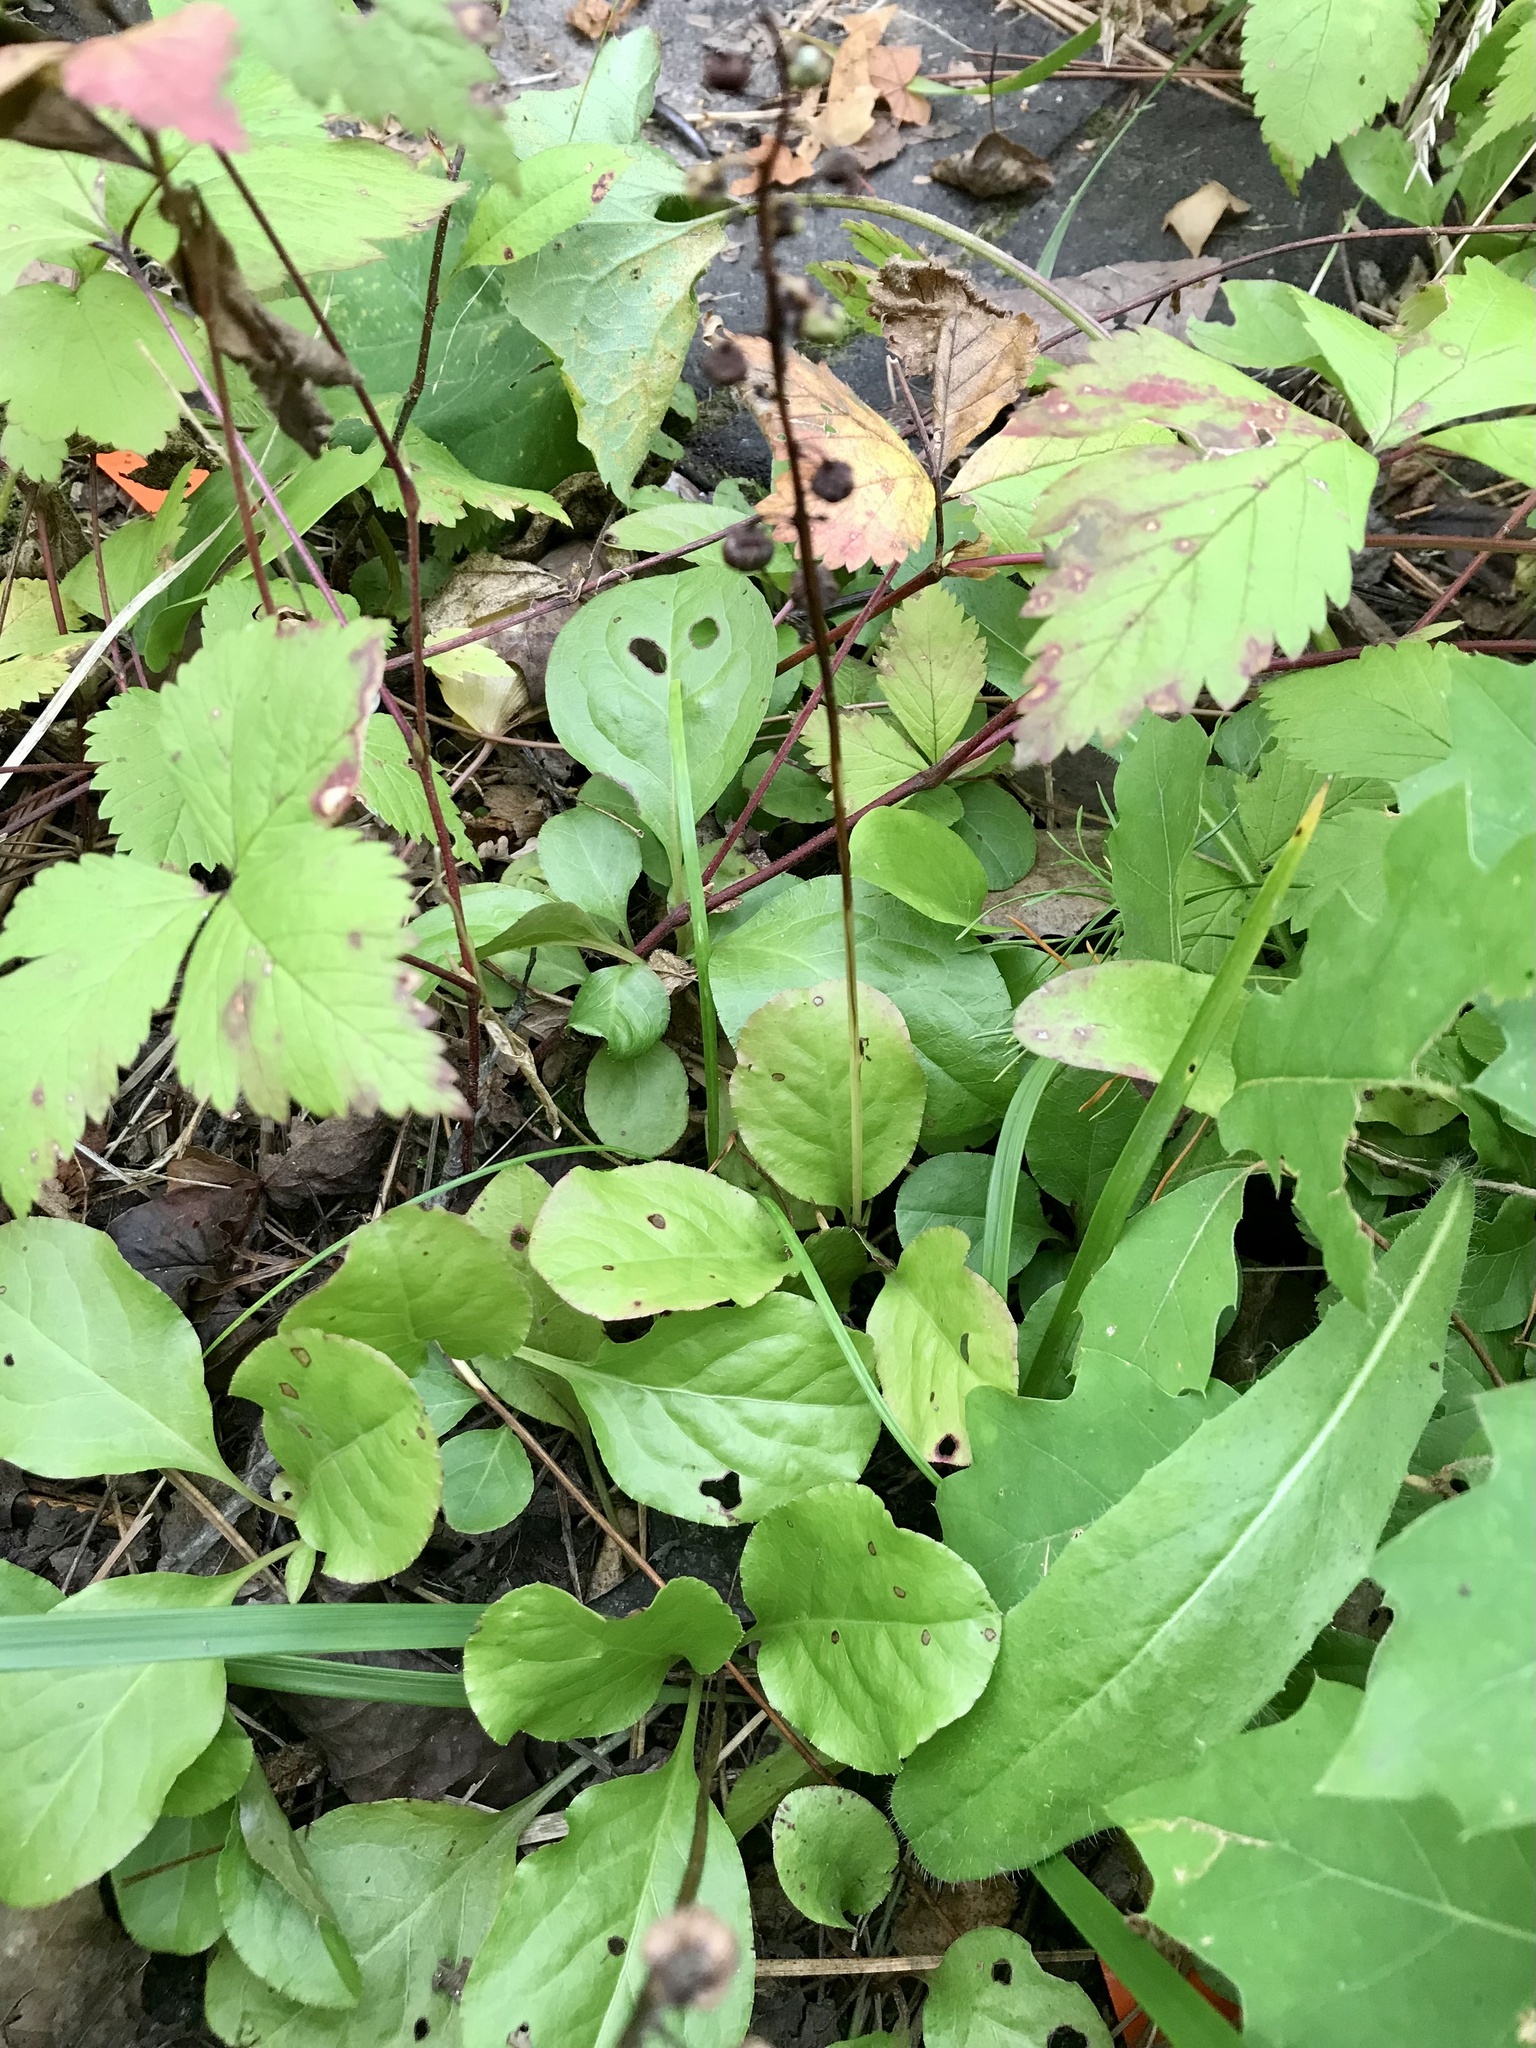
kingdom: Plantae
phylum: Tracheophyta
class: Magnoliopsida
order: Ericales
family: Ericaceae
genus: Pyrola
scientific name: Pyrola elliptica
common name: Shinleaf
